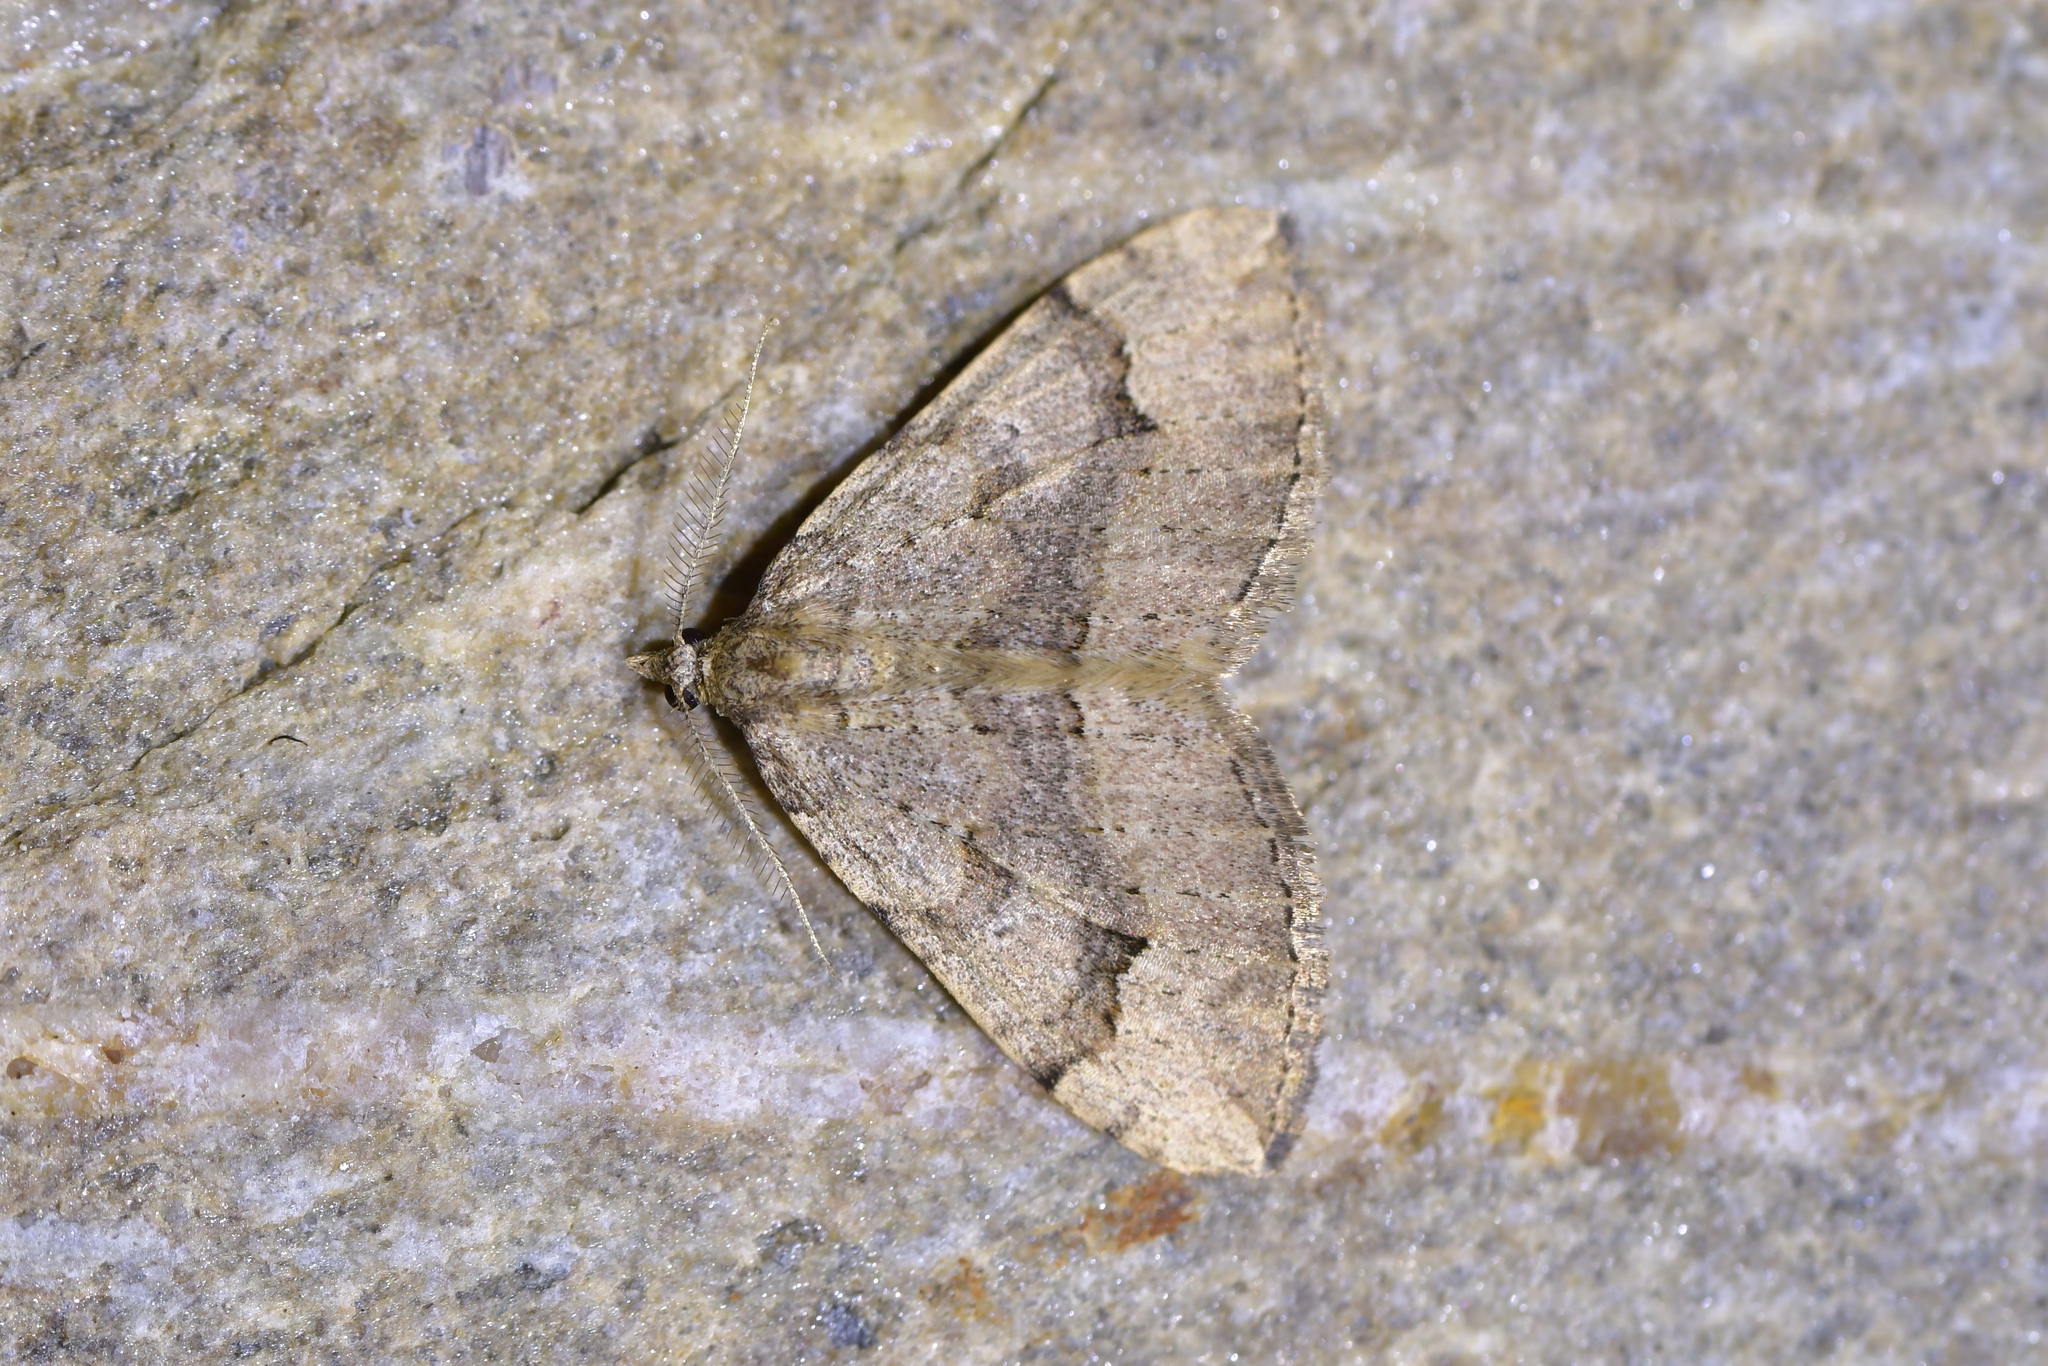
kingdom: Animalia
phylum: Arthropoda
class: Insecta
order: Lepidoptera
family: Geometridae
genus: Epyaxa
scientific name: Epyaxa rosearia
